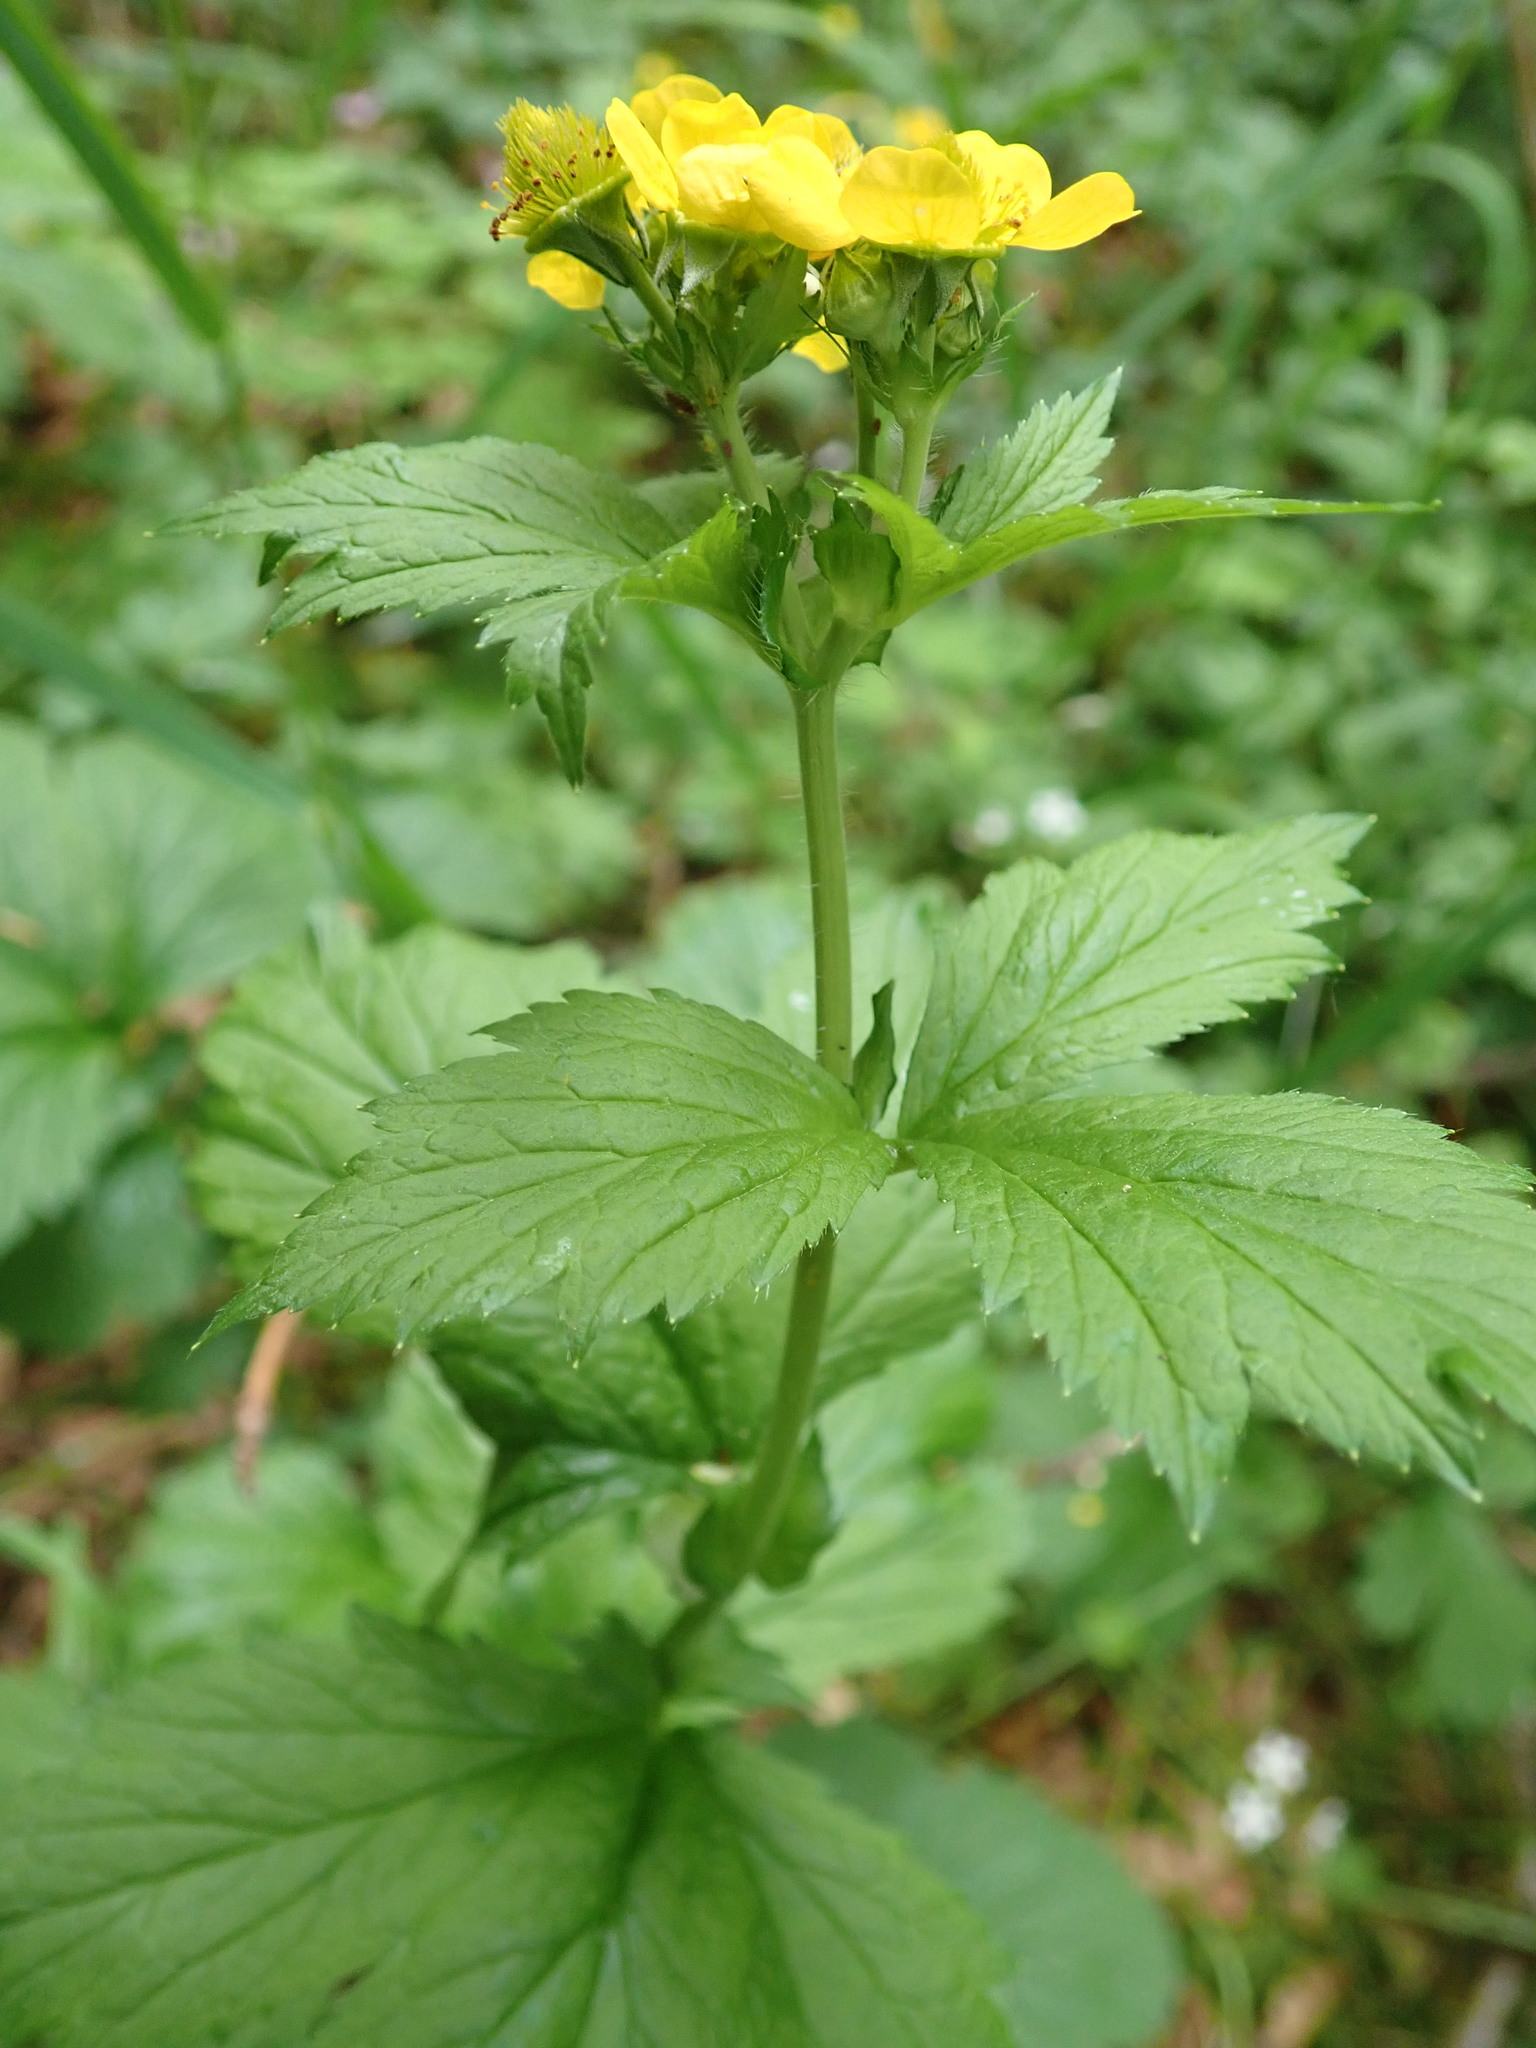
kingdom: Plantae
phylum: Tracheophyta
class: Magnoliopsida
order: Rosales
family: Rosaceae
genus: Geum
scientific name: Geum macrophyllum
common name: Large-leaved avens
